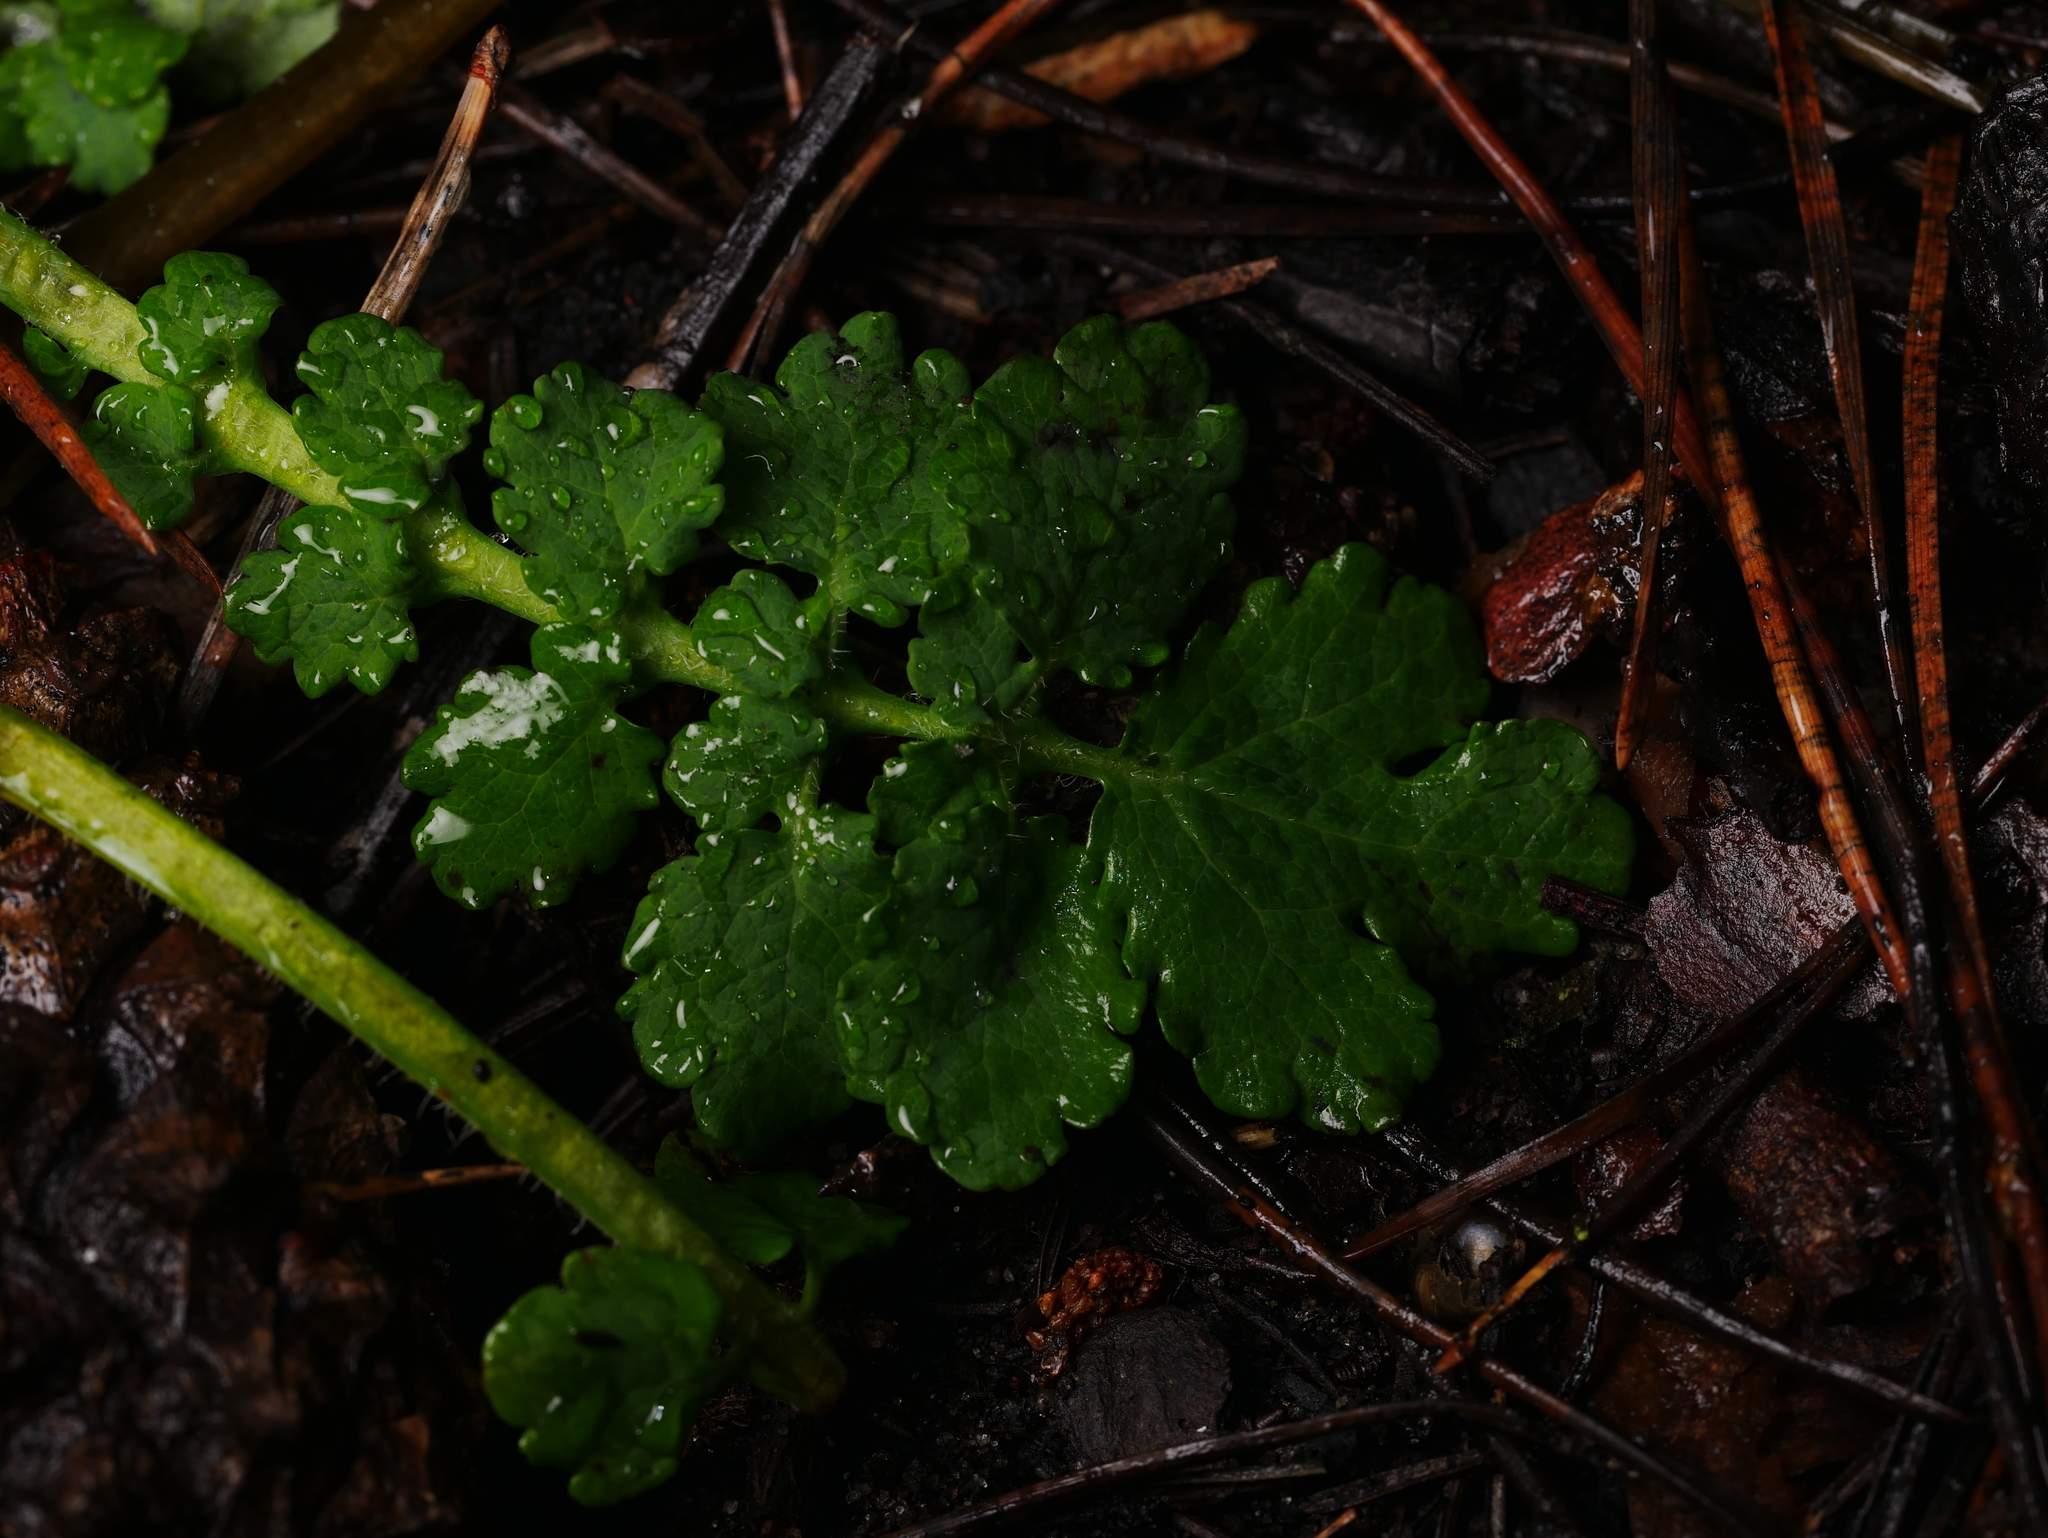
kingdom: Plantae
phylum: Tracheophyta
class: Magnoliopsida
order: Ranunculales
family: Papaveraceae
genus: Chelidonium
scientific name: Chelidonium majus
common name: Greater celandine
